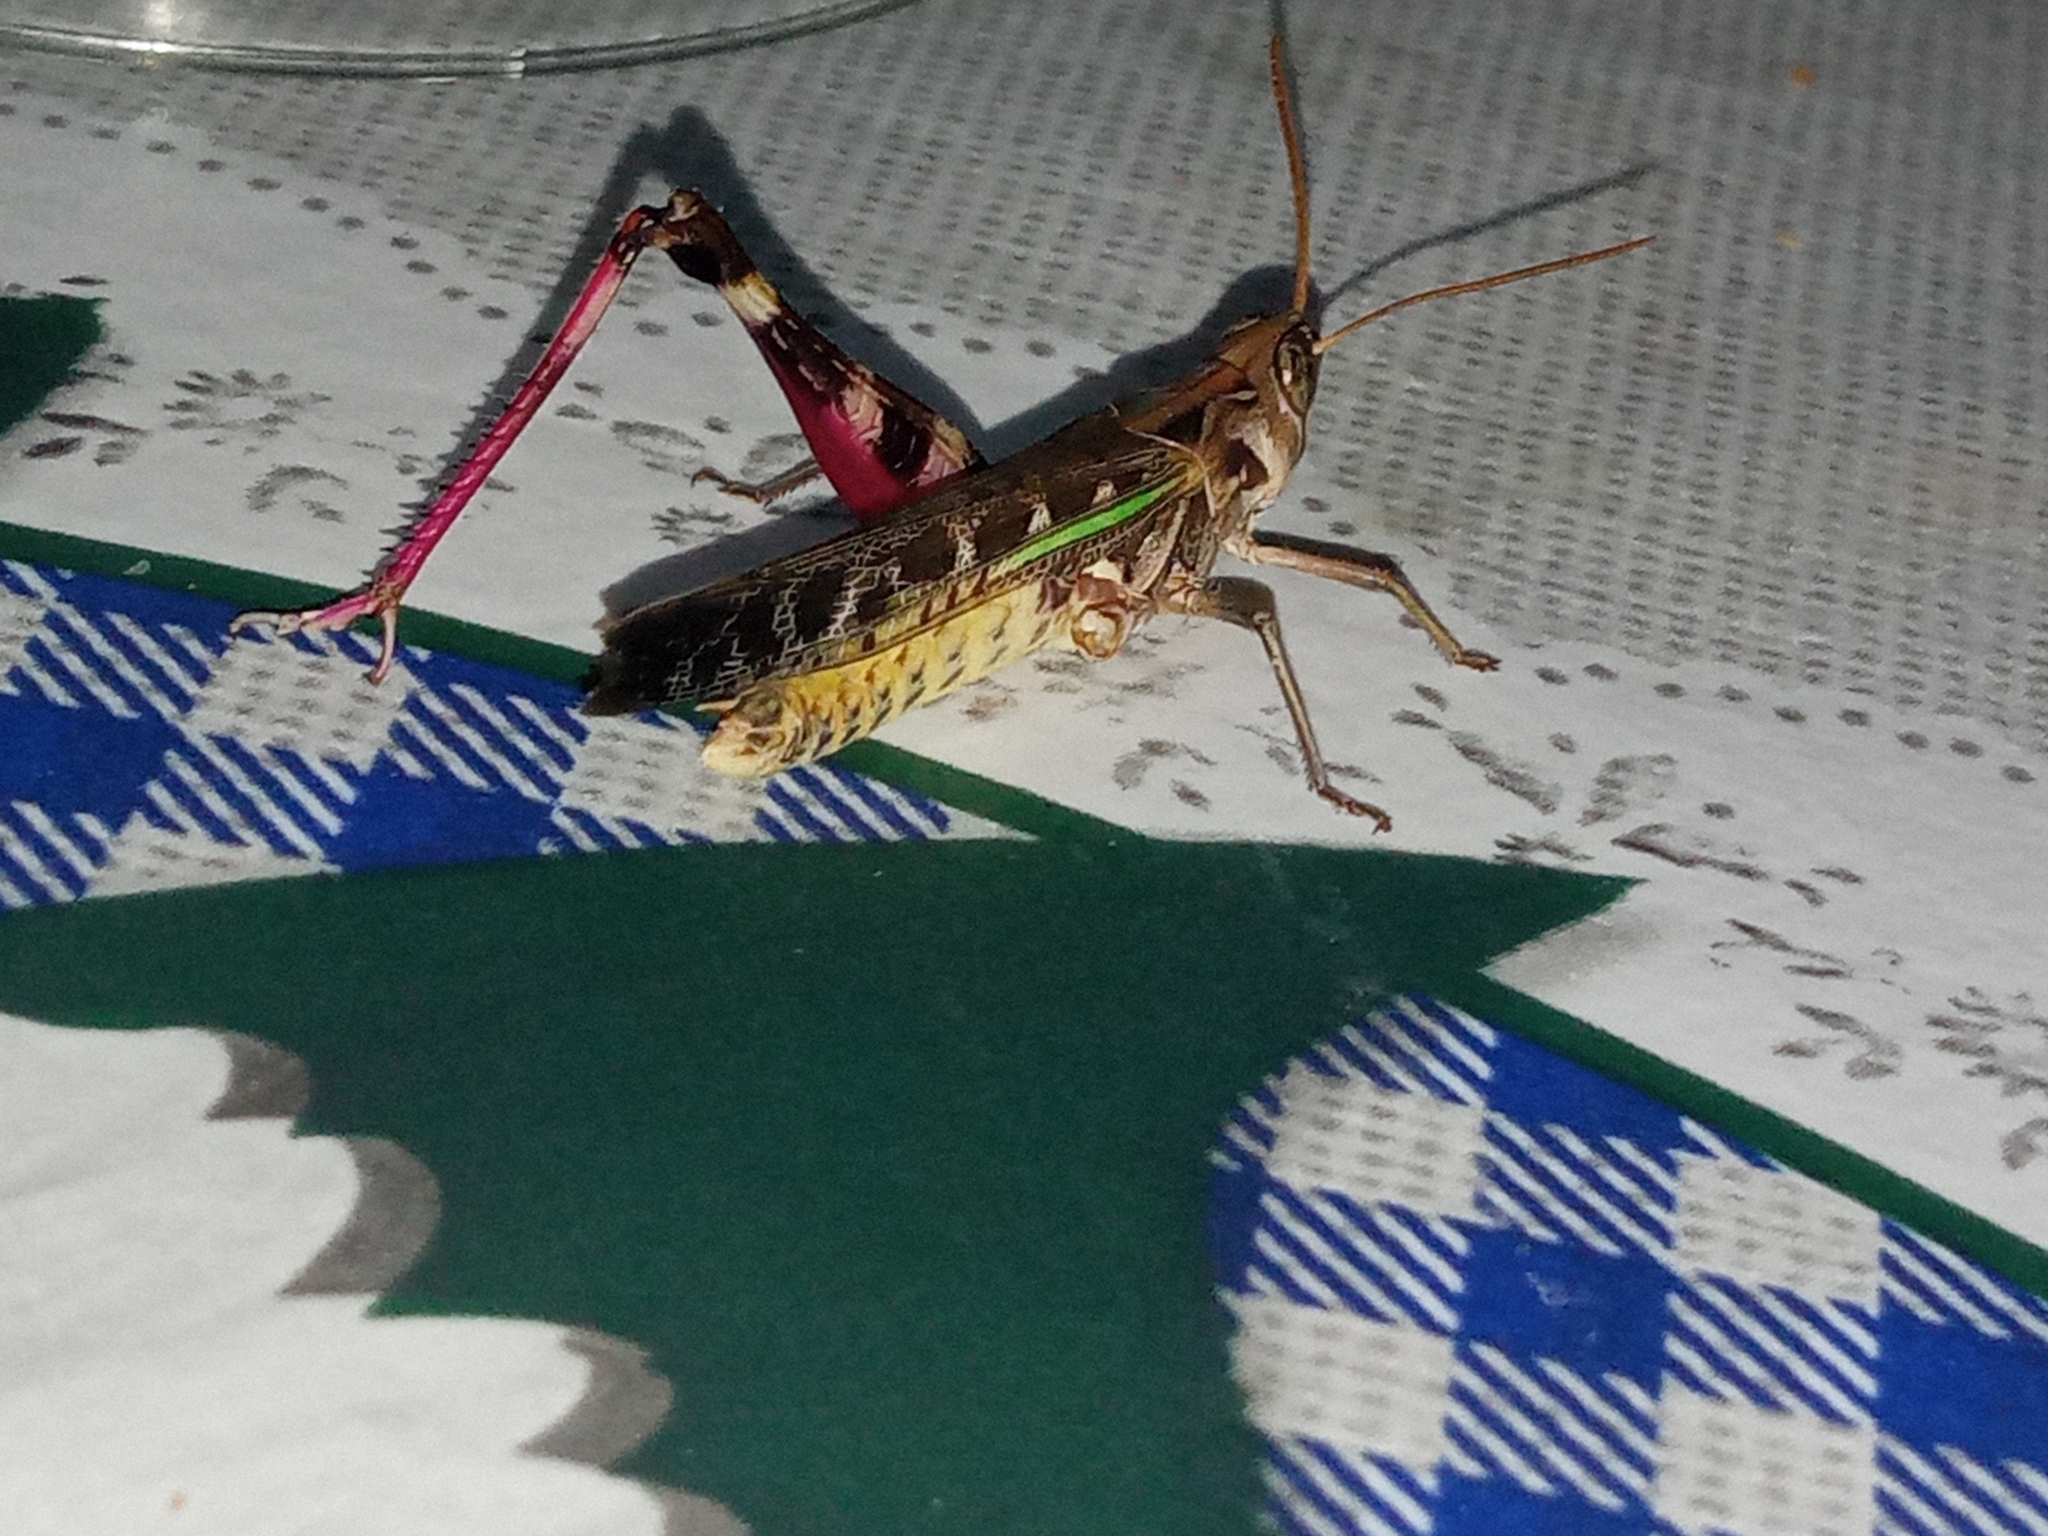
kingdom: Animalia
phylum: Arthropoda
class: Insecta
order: Orthoptera
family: Acrididae
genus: Rhammatocerus
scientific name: Rhammatocerus pictus
